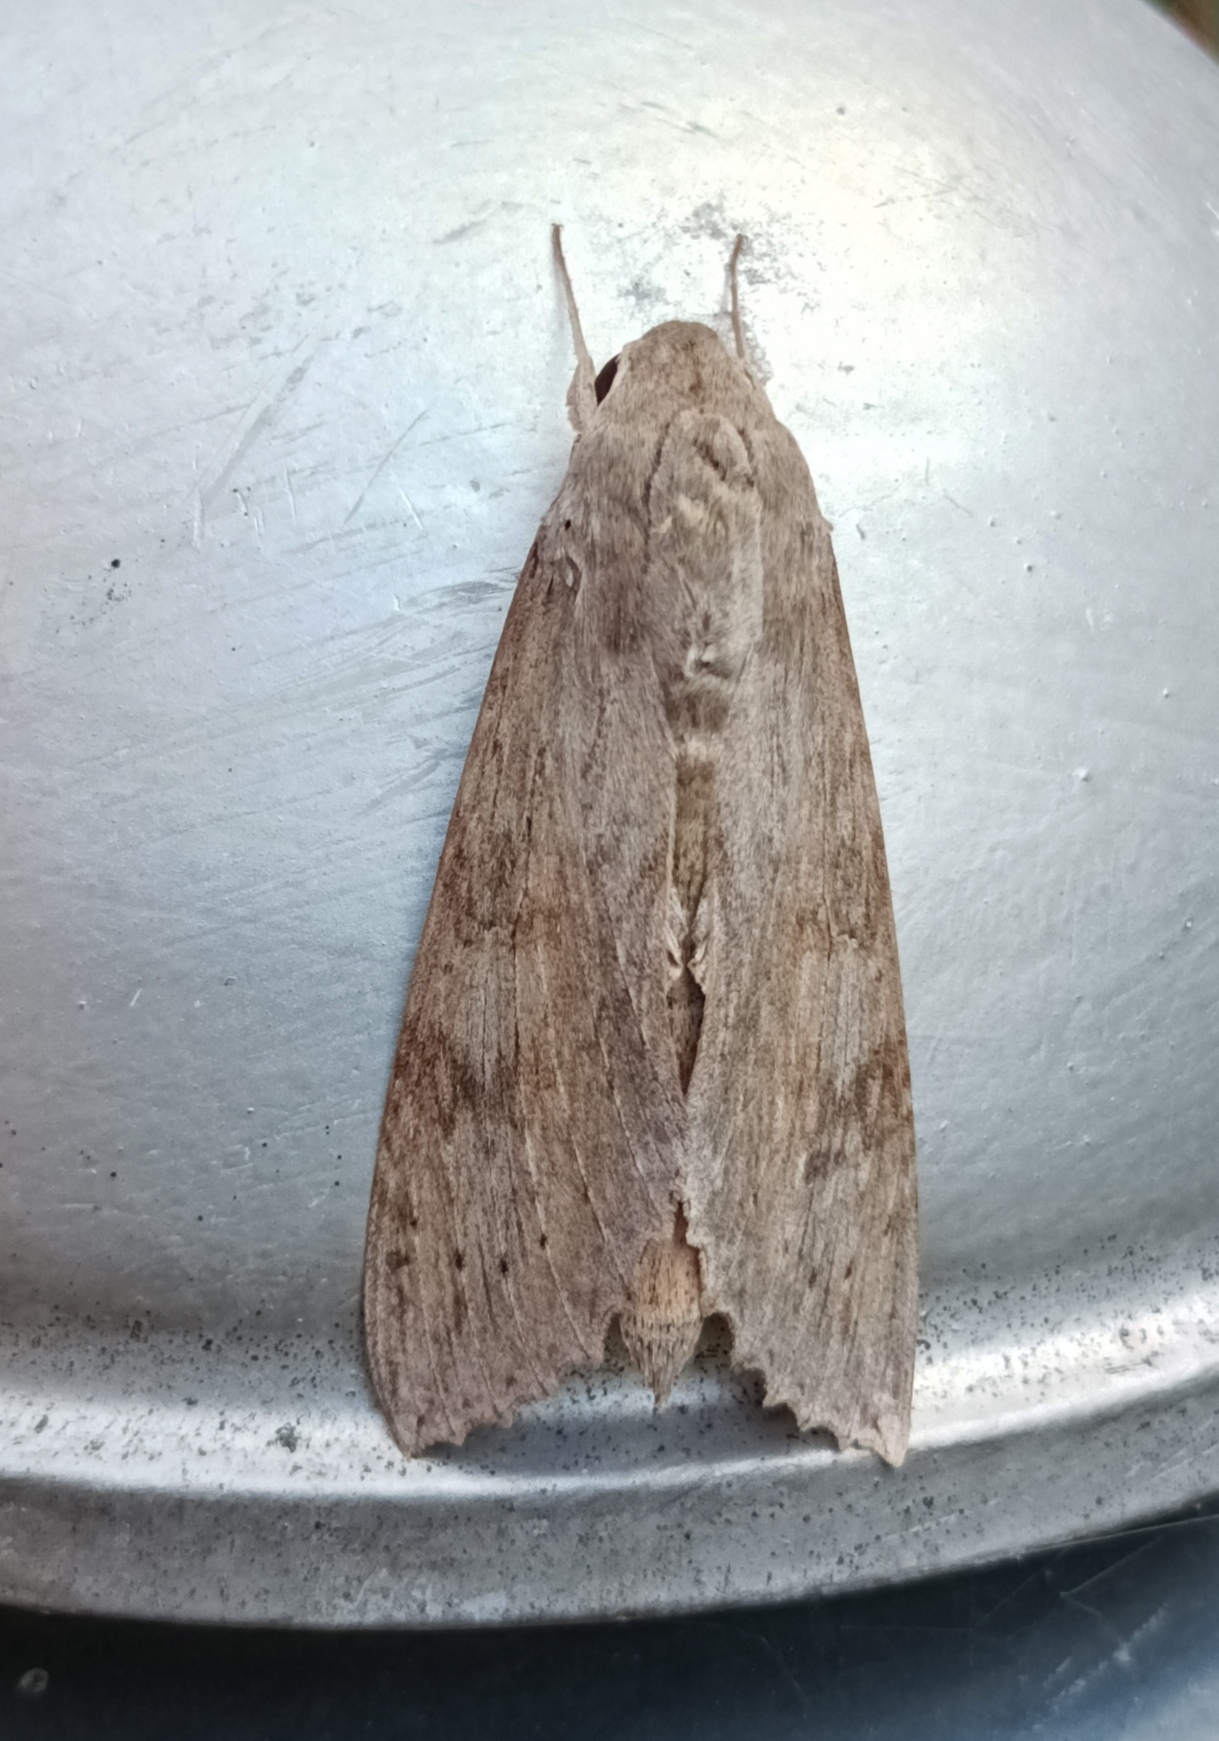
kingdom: Animalia
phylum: Arthropoda
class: Insecta
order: Lepidoptera
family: Sphingidae
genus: Erinnyis
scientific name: Erinnyis ello
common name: Ello sphinx
